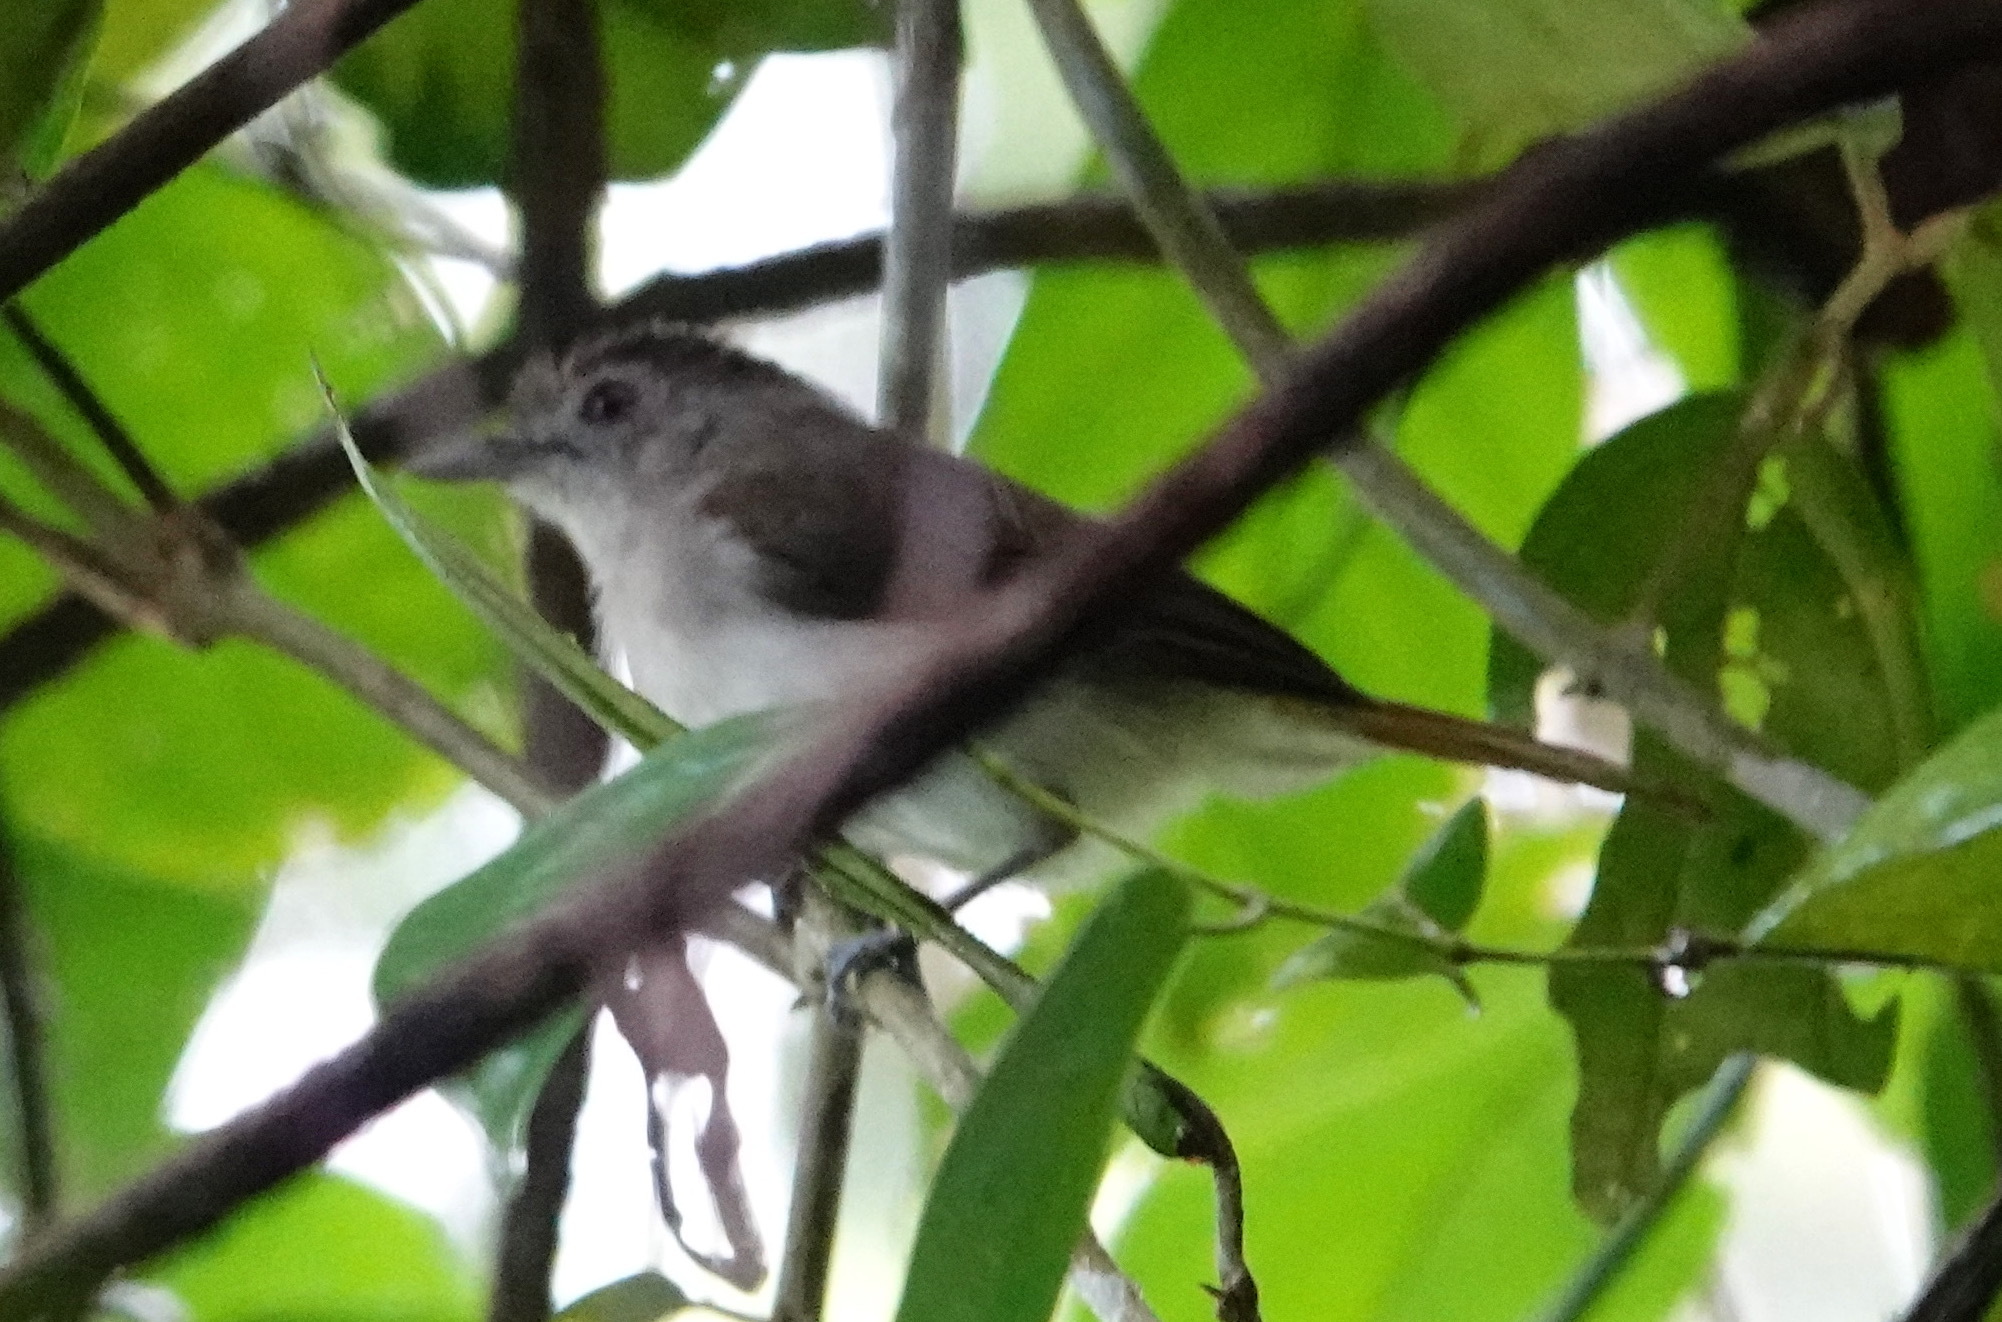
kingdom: Animalia
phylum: Chordata
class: Aves
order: Passeriformes
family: Pellorneidae
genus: Malacopteron
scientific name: Malacopteron affine
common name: Sooty-capped babbler
